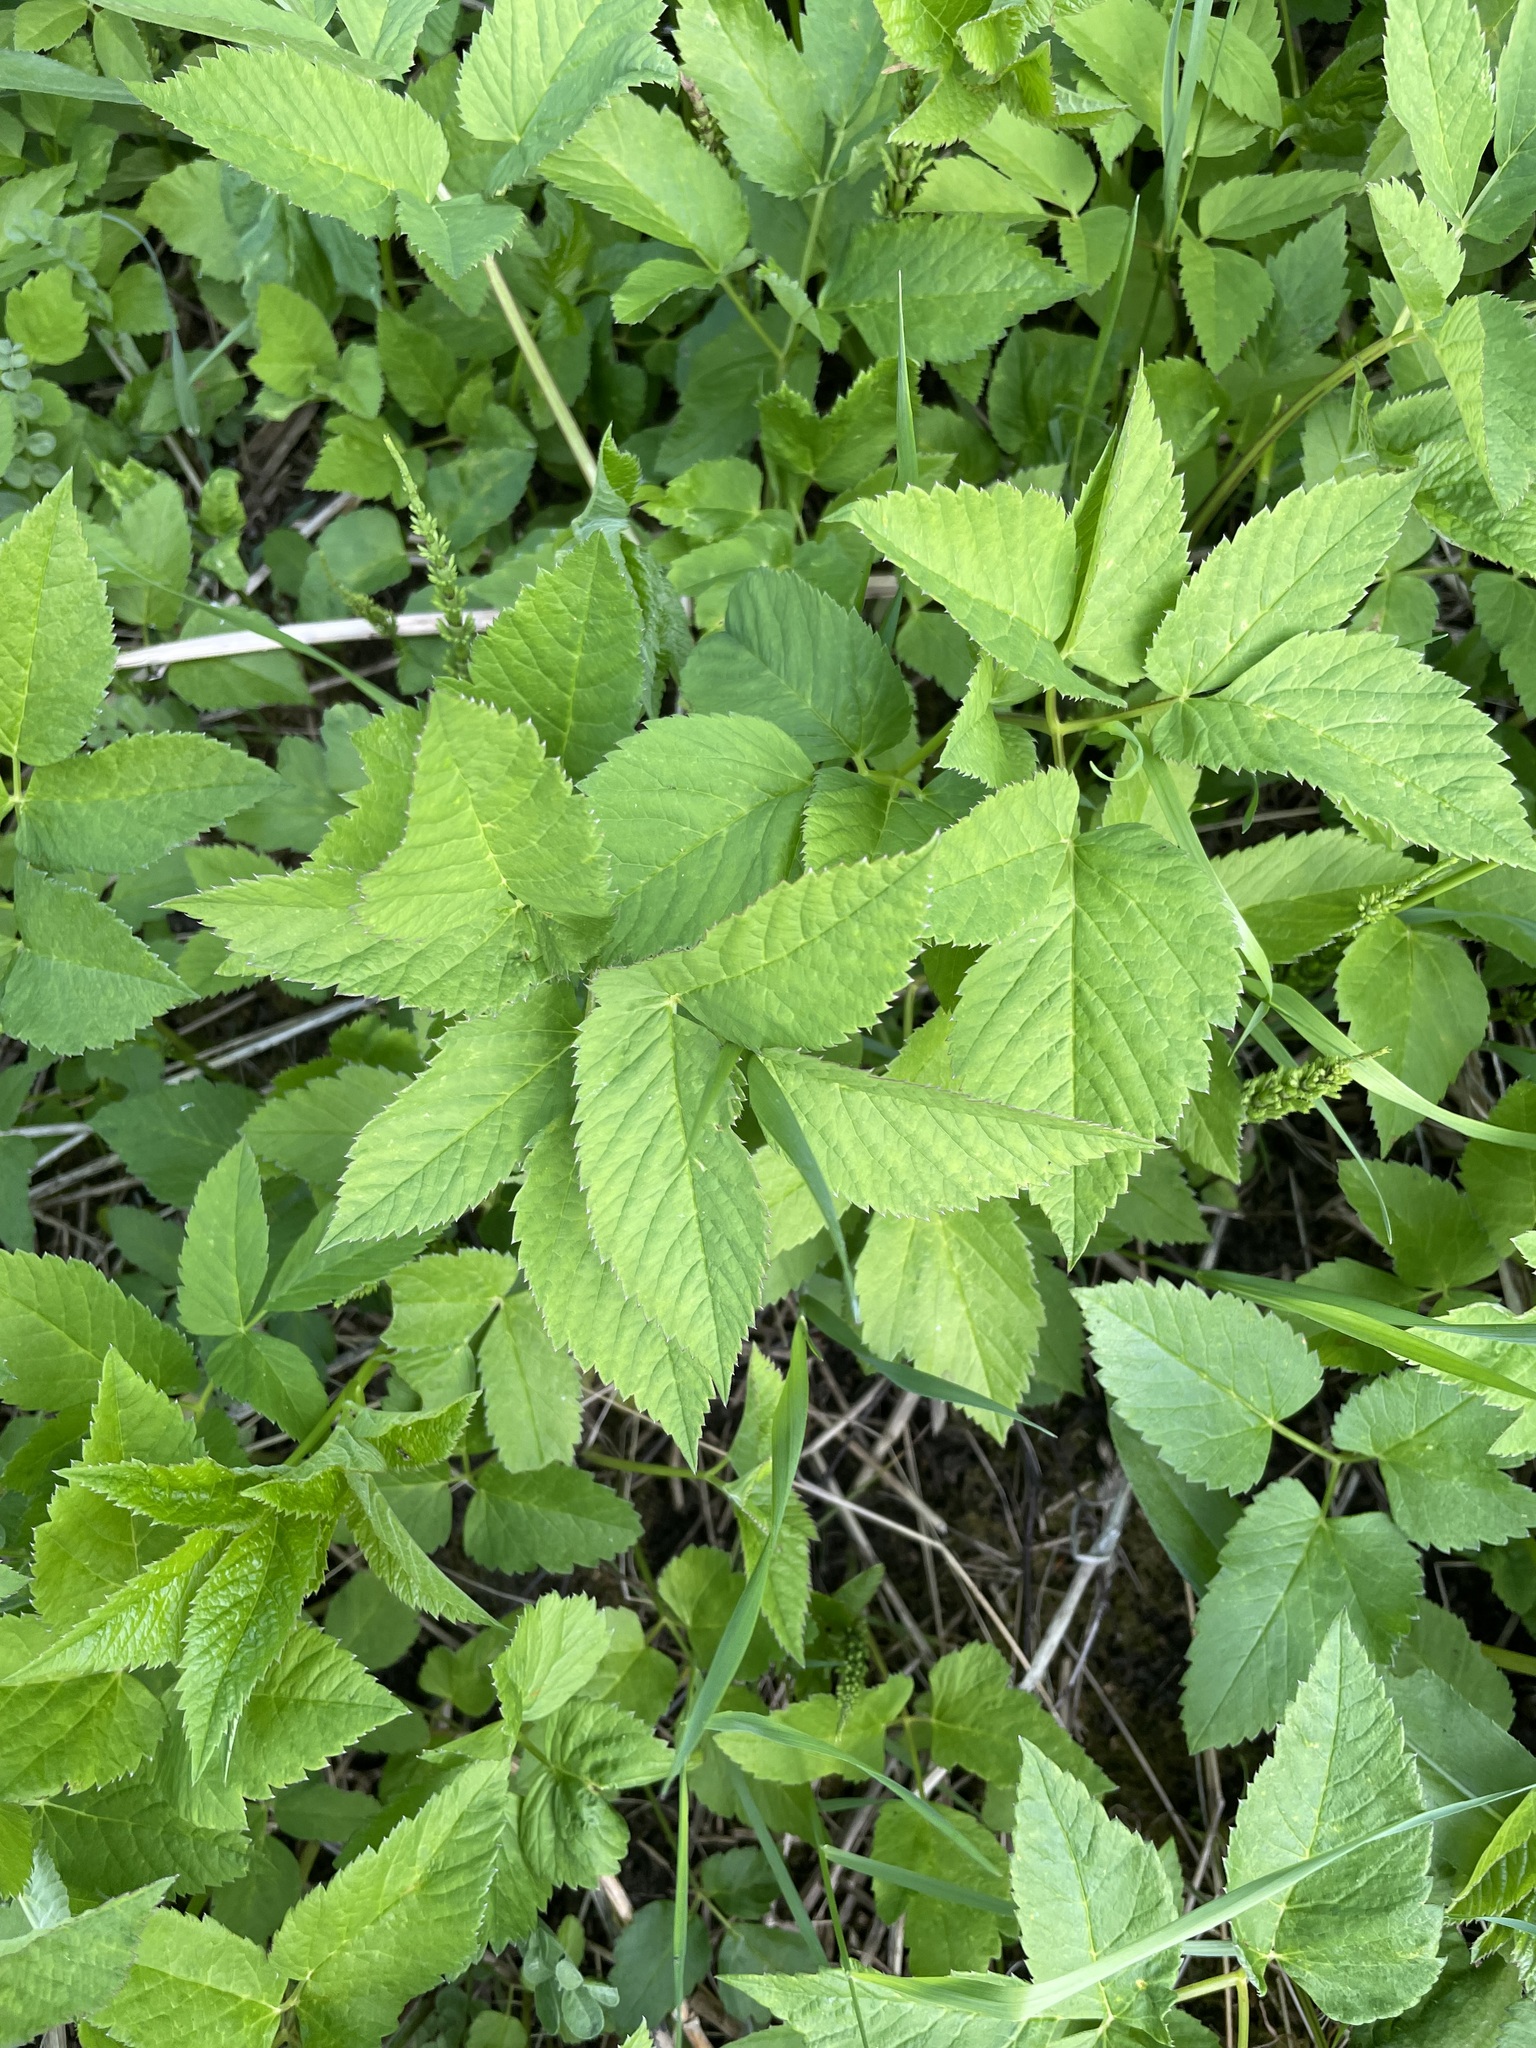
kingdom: Plantae
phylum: Tracheophyta
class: Magnoliopsida
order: Apiales
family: Apiaceae
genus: Aegopodium
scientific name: Aegopodium podagraria
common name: Ground-elder
